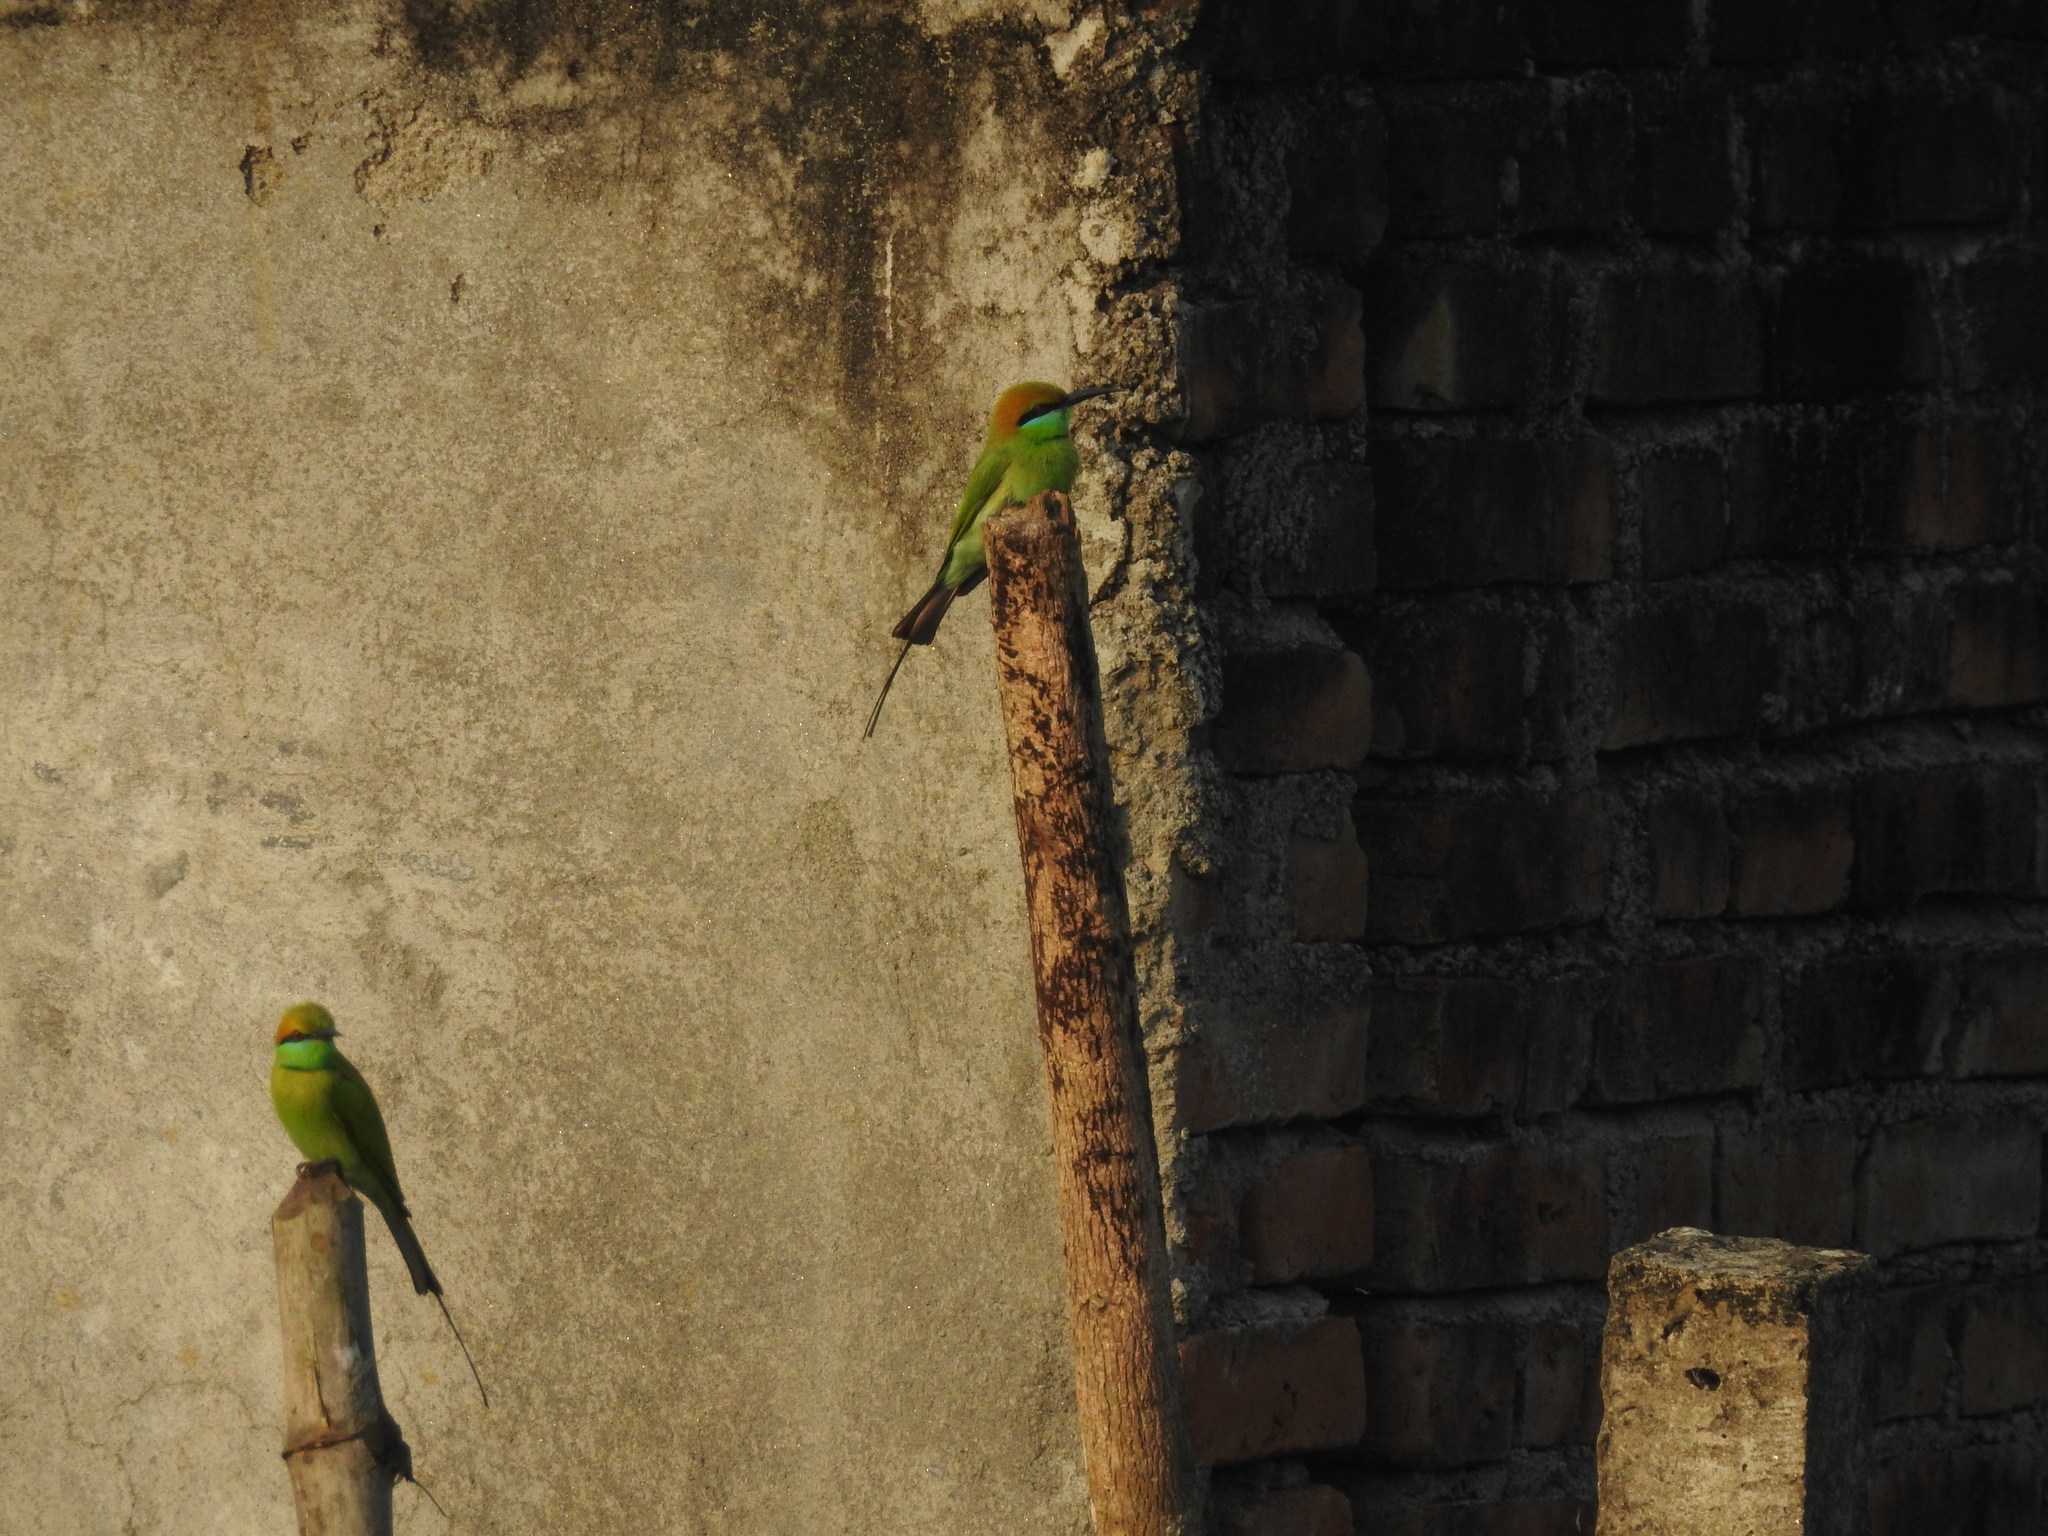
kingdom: Animalia
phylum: Chordata
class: Aves
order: Coraciiformes
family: Meropidae
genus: Merops
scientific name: Merops orientalis
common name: Green bee-eater
